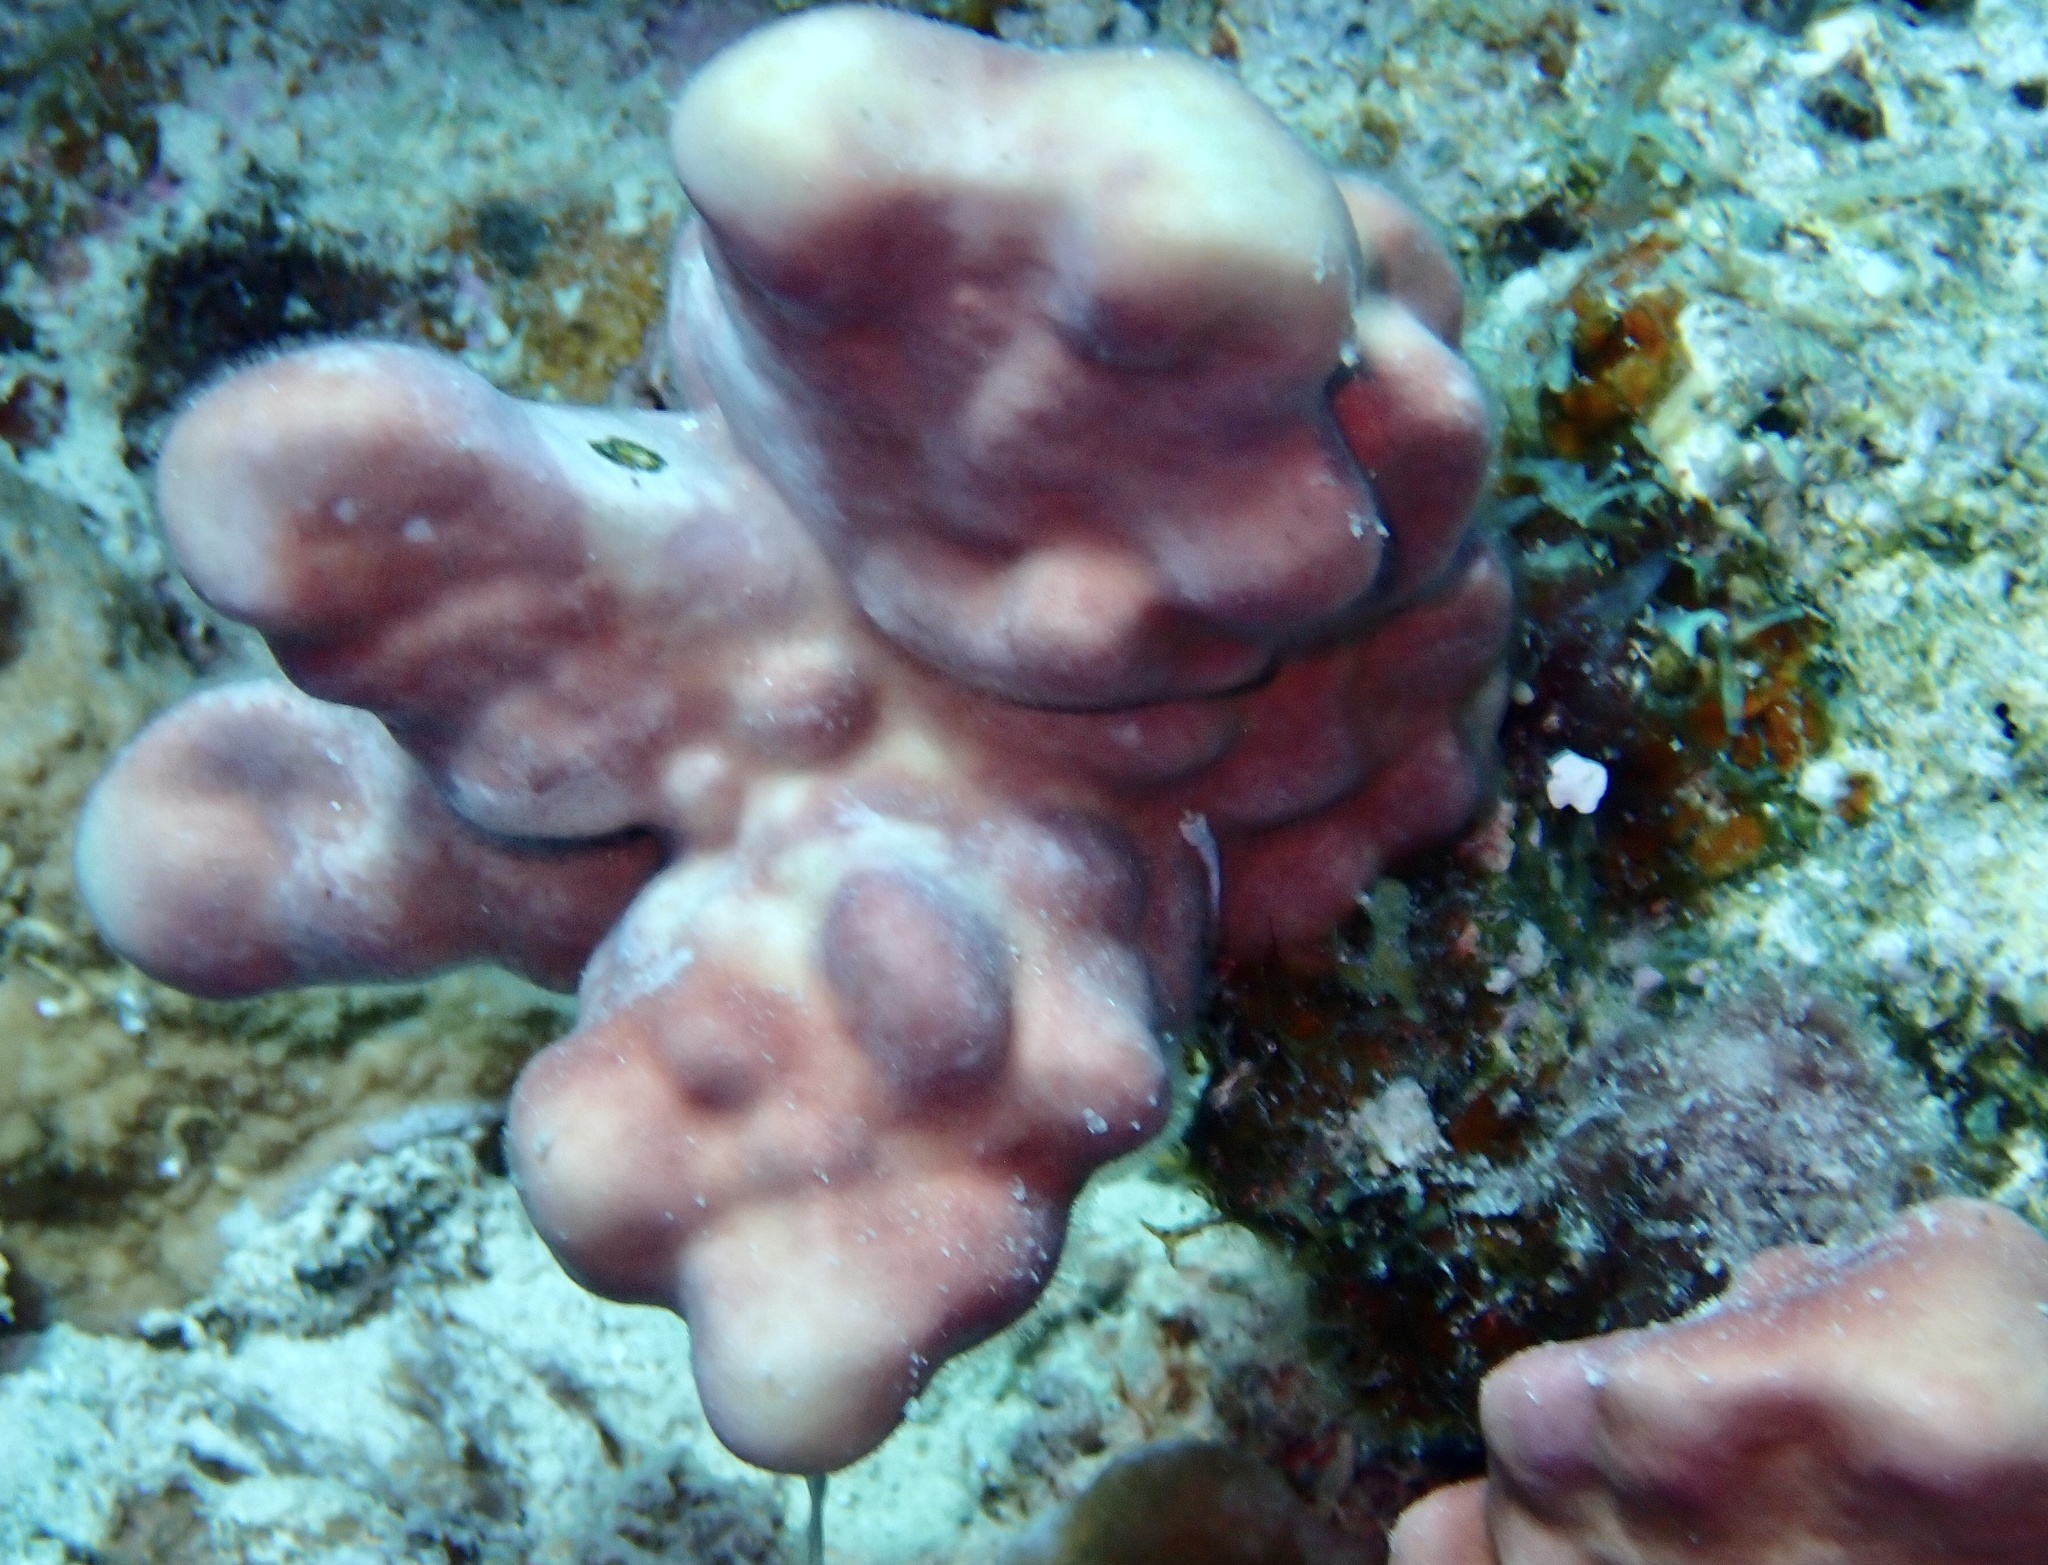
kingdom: Animalia
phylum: Cnidaria
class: Hydrozoa
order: Anthoathecata
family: Milleporidae
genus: Millepora
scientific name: Millepora exaesa
